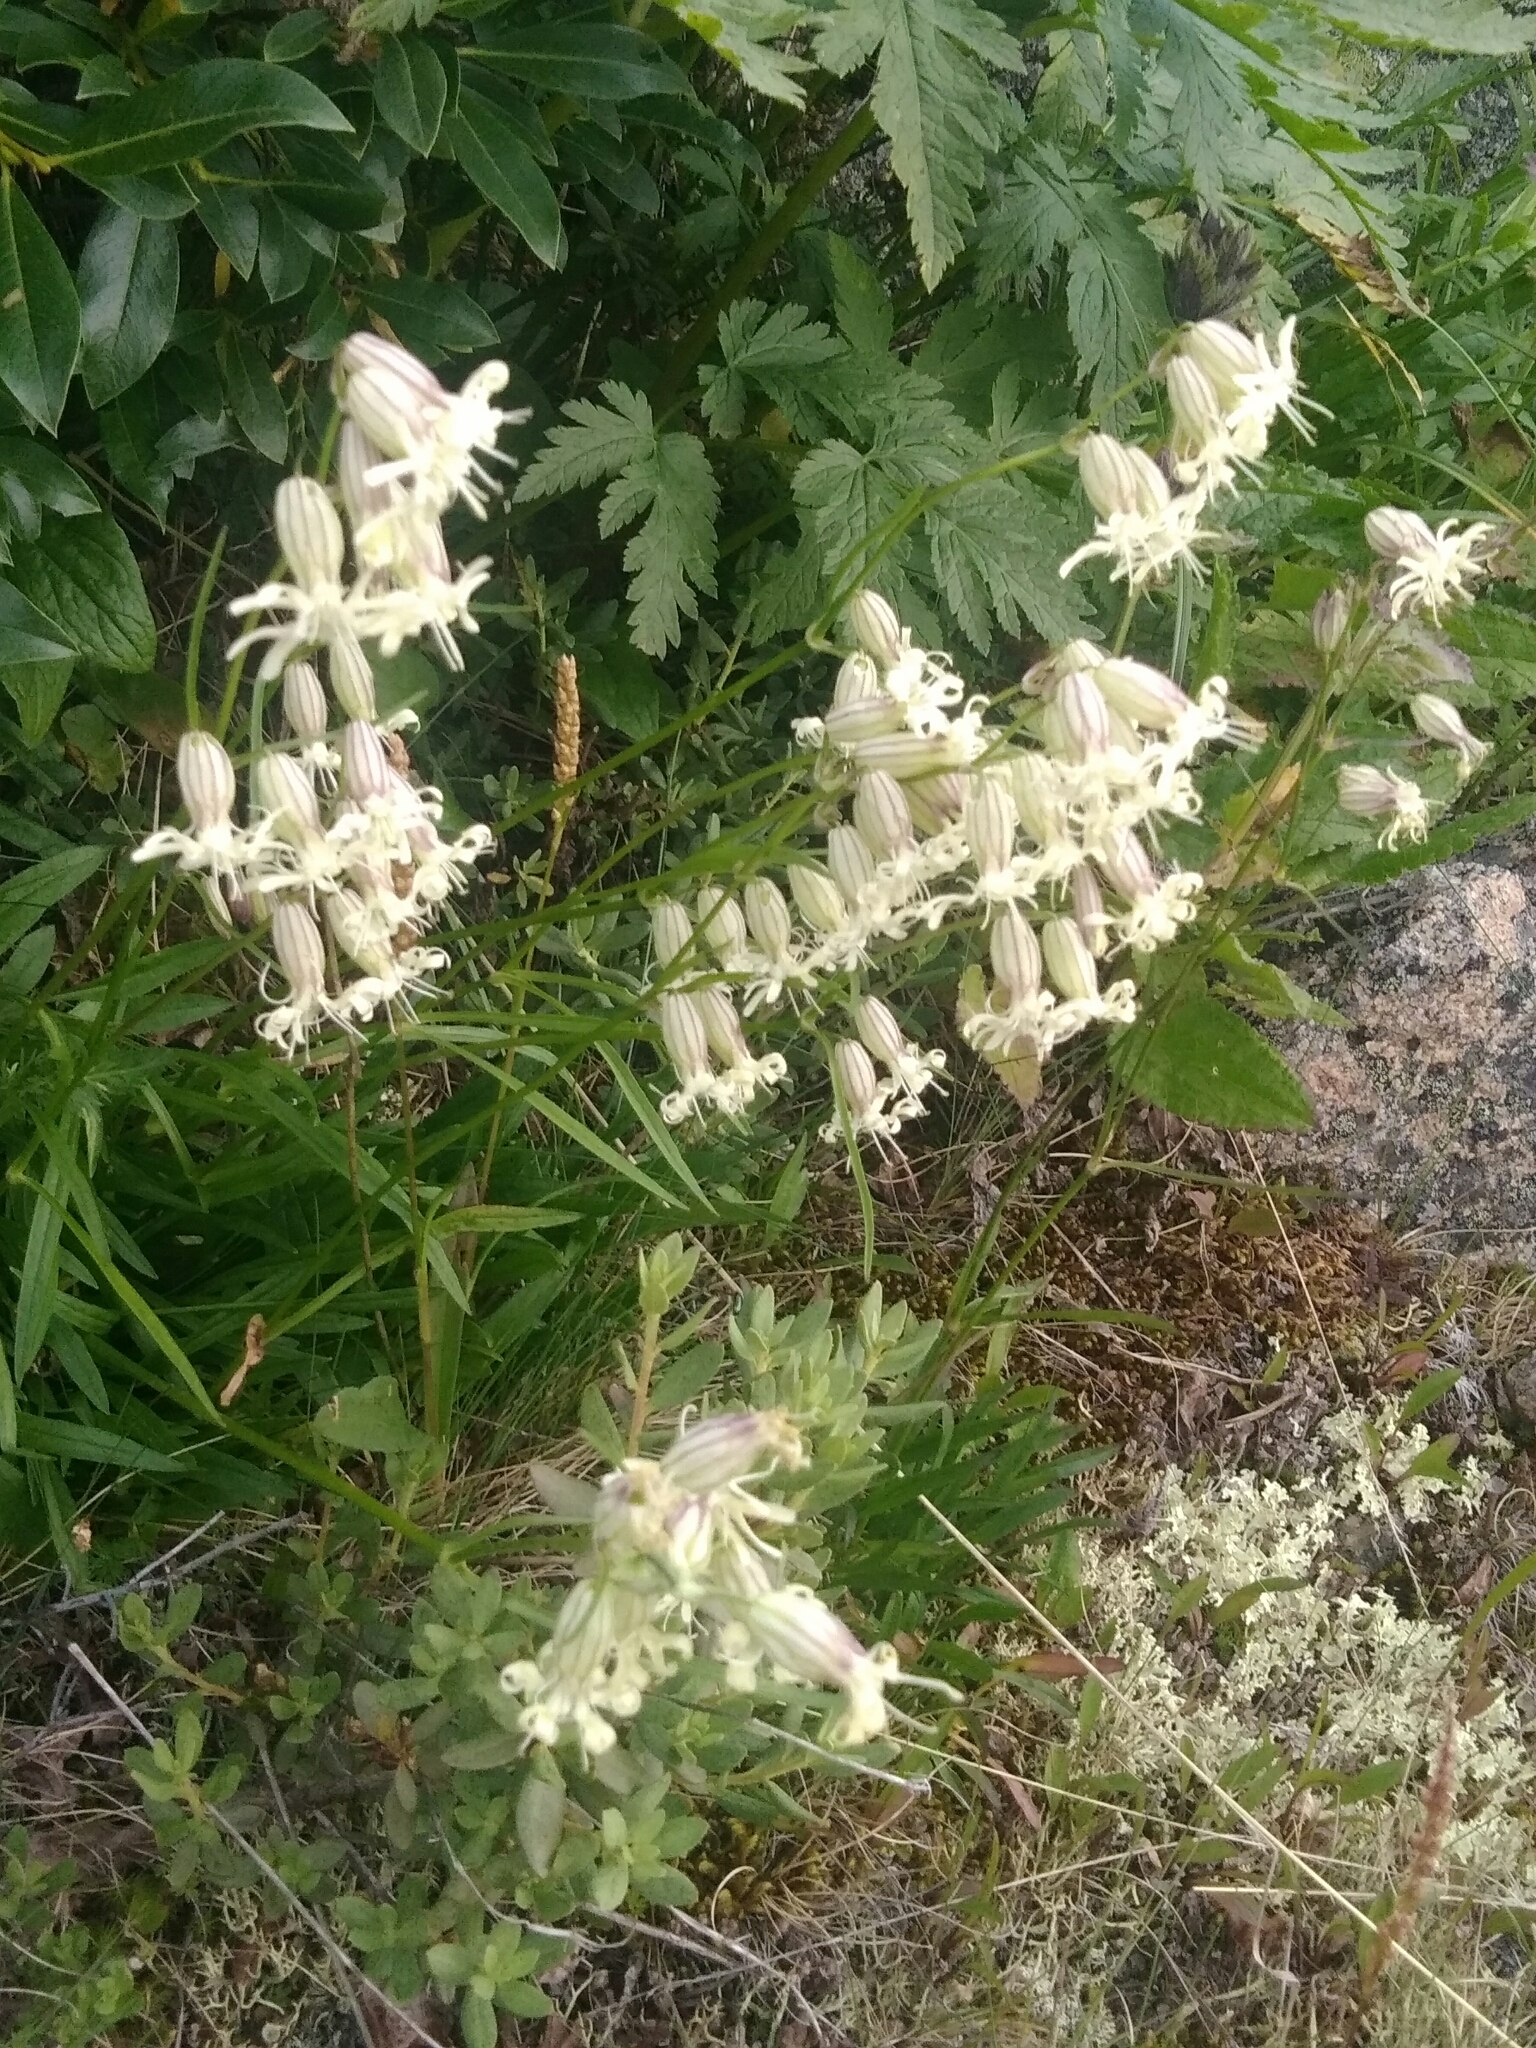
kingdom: Plantae
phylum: Tracheophyta
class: Magnoliopsida
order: Caryophyllales
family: Caryophyllaceae
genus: Silene
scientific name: Silene vulgaris
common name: Bladder campion
